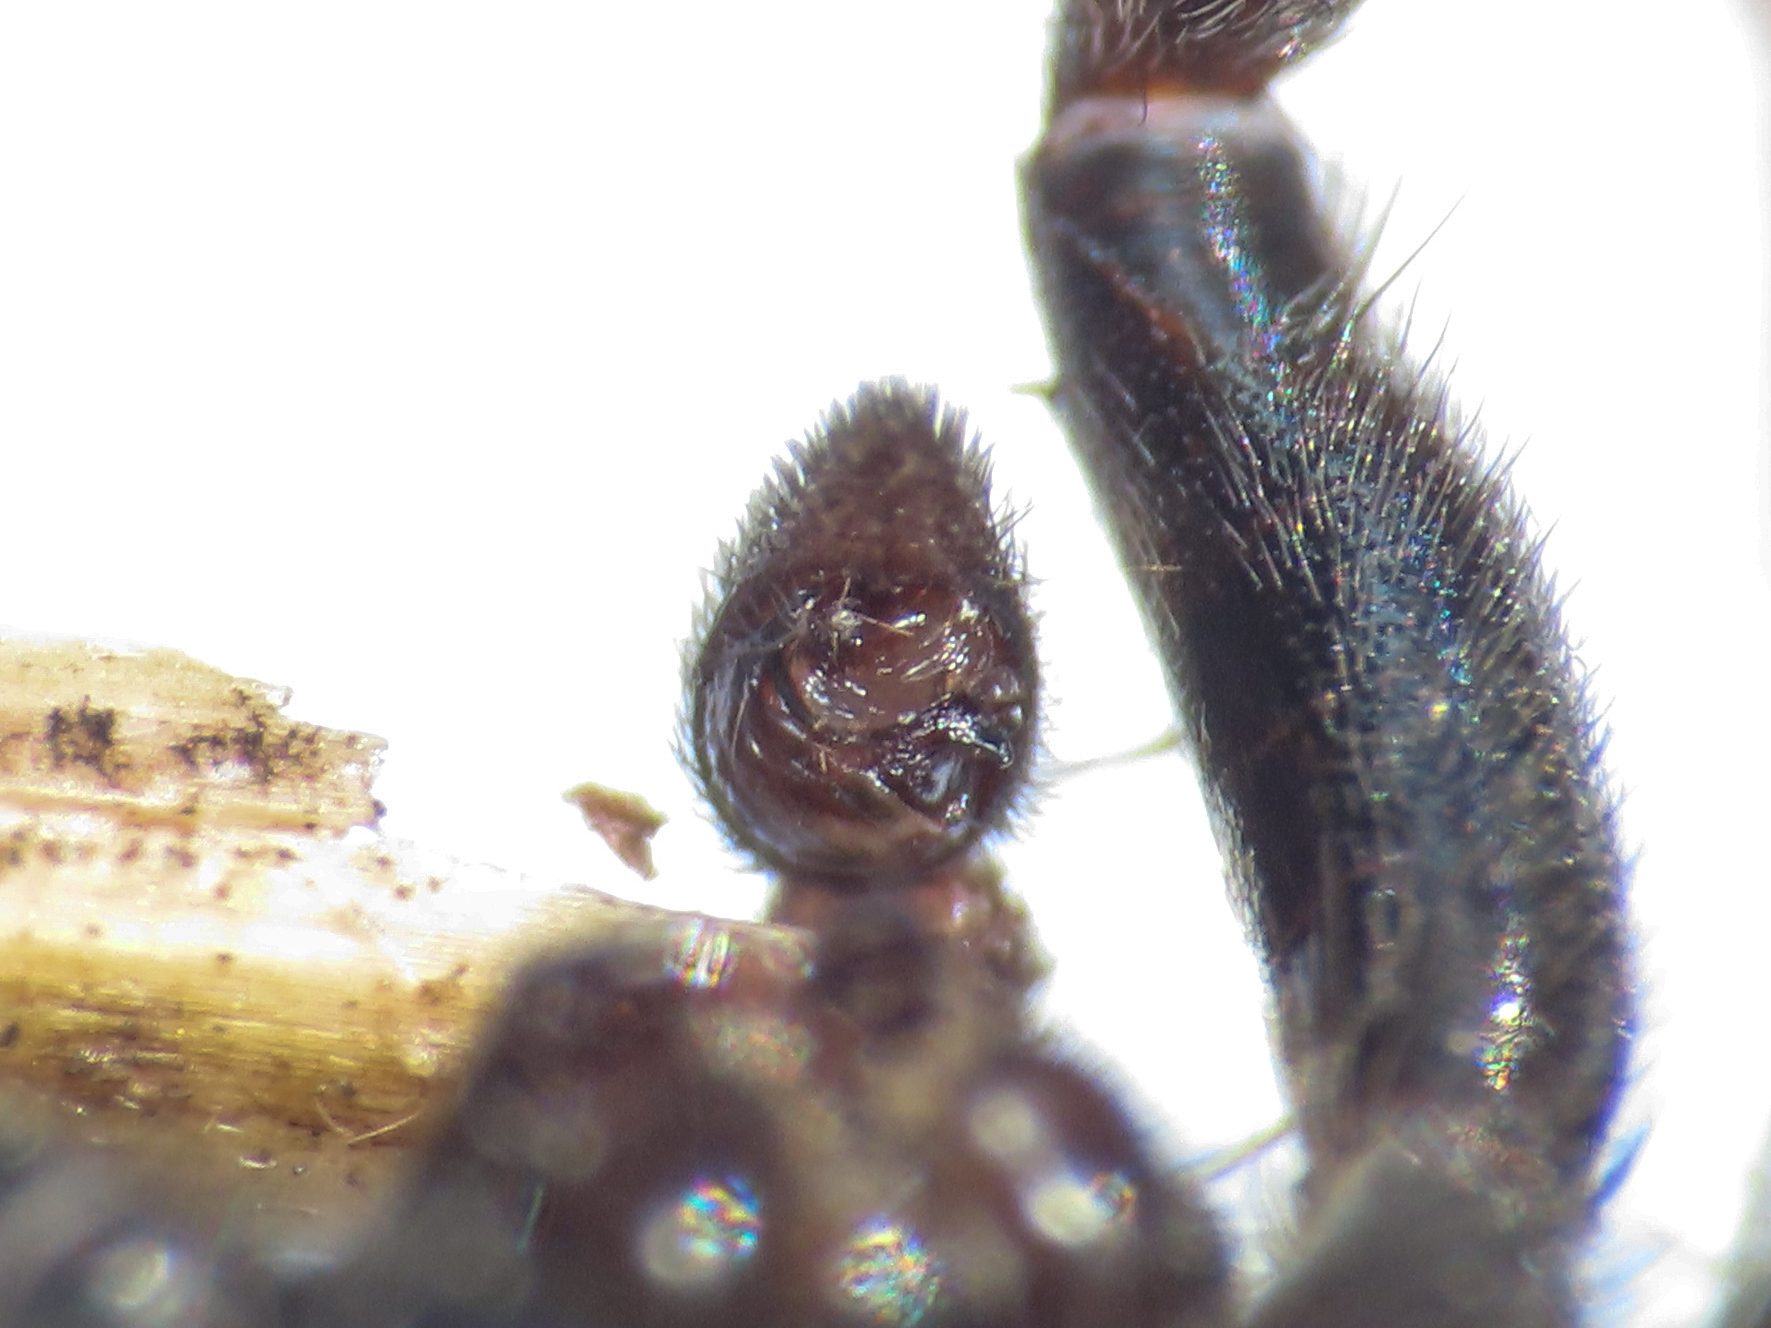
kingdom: Animalia
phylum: Arthropoda
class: Arachnida
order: Araneae
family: Lycosidae
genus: Alopecosa
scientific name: Alopecosa cursor
